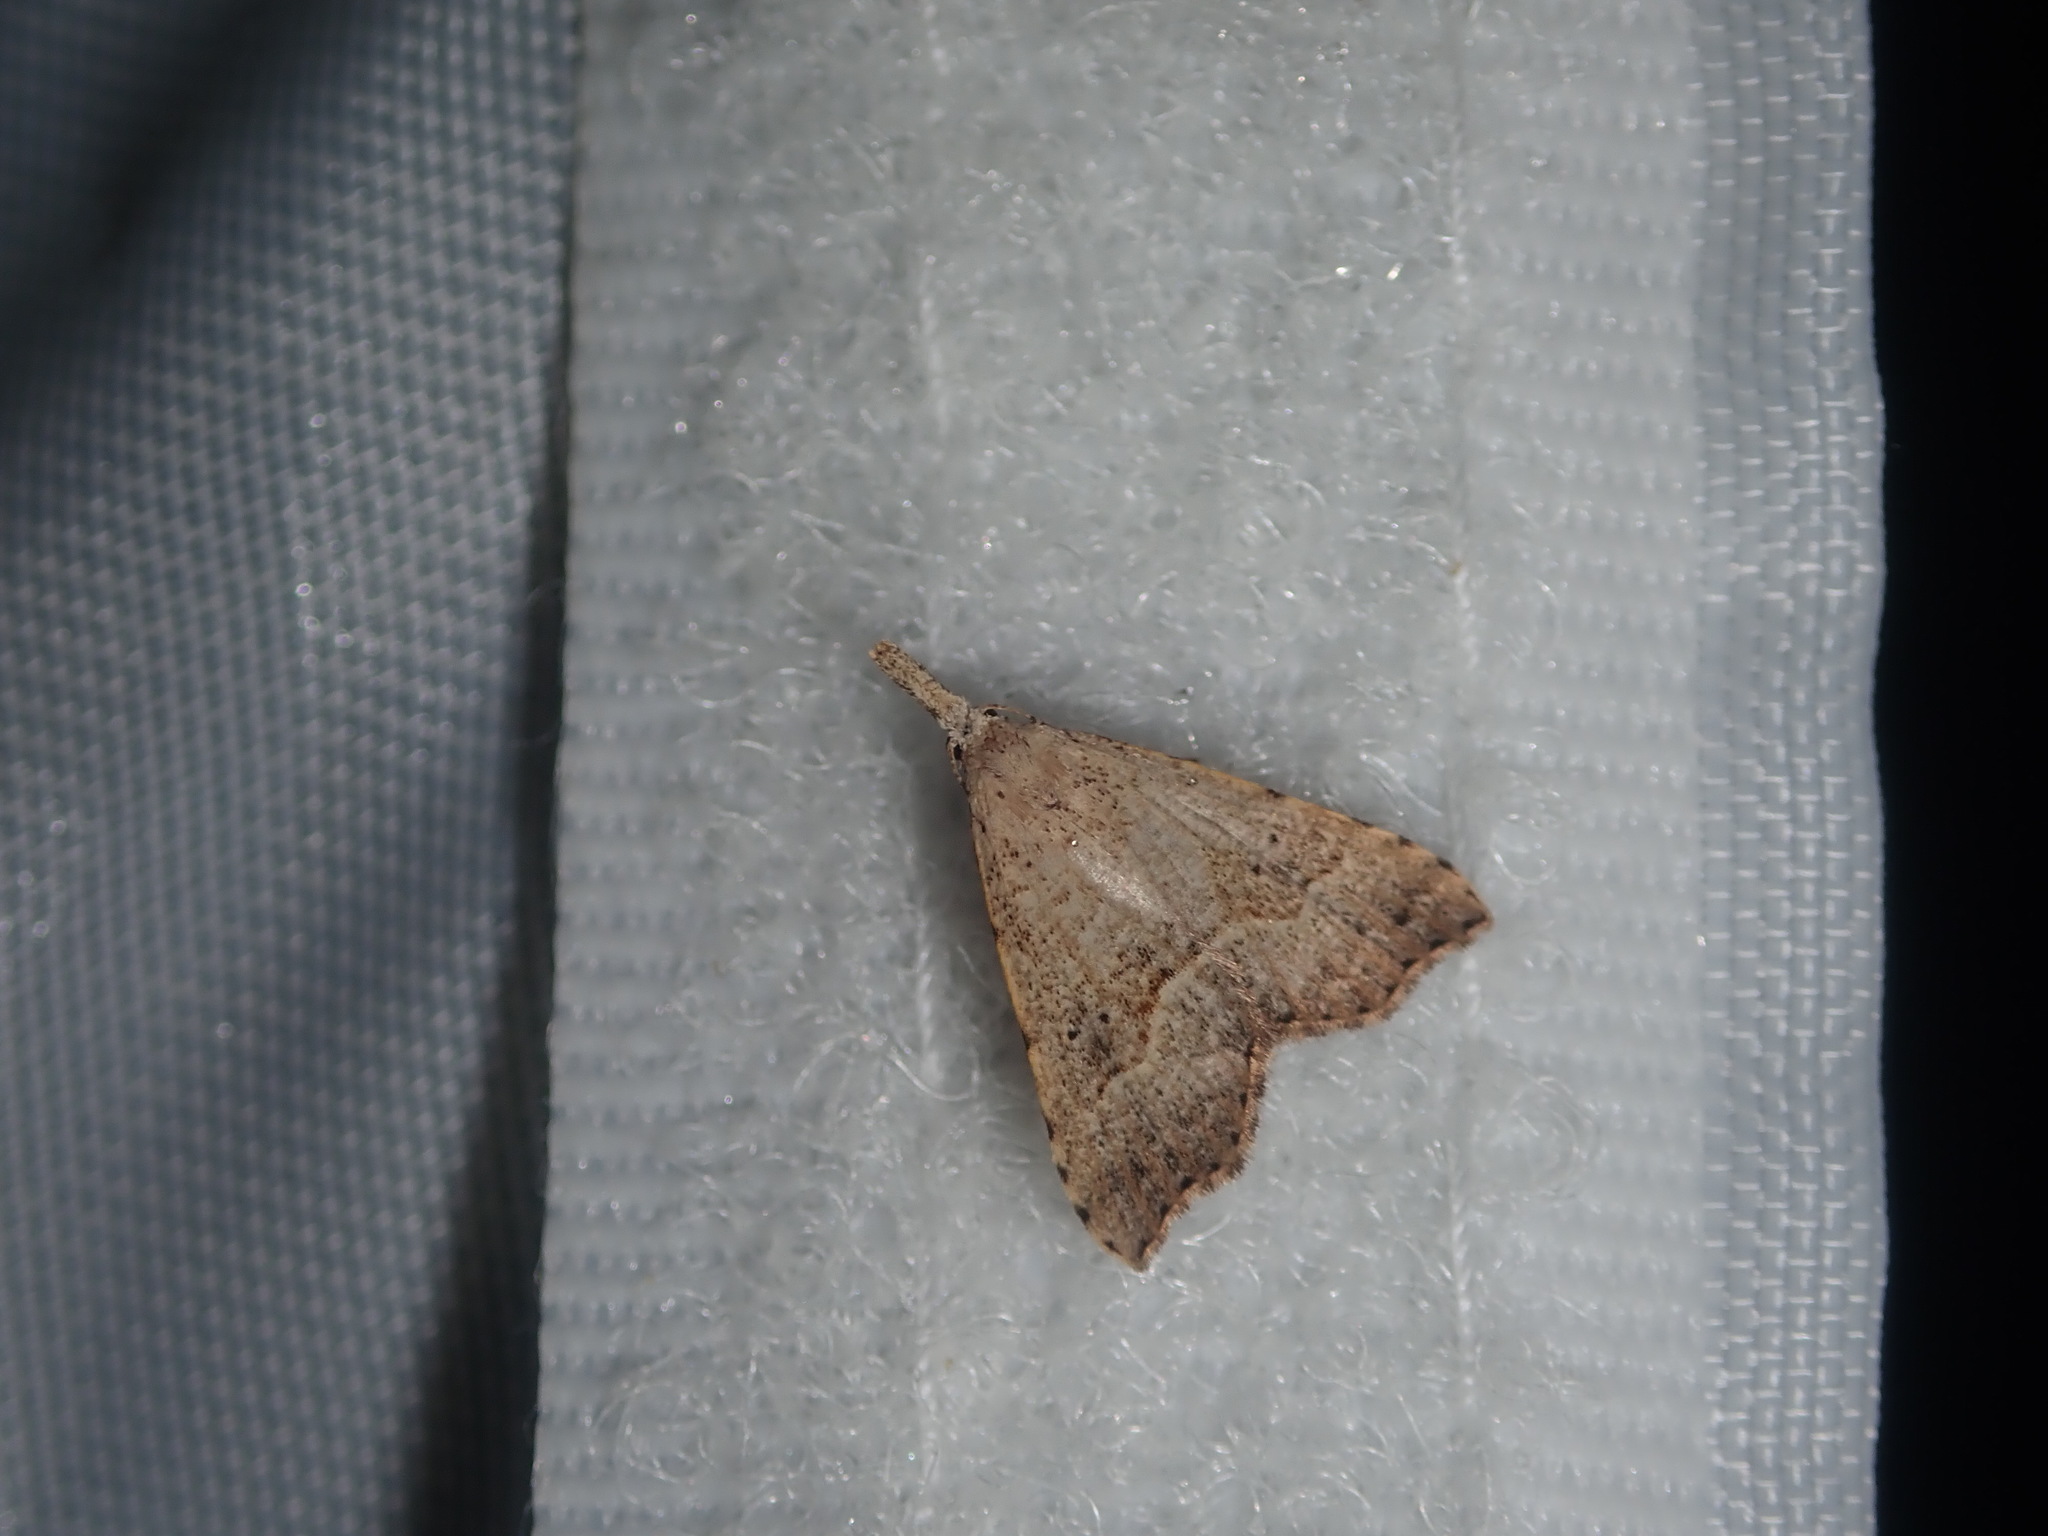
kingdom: Animalia
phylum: Arthropoda
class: Insecta
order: Lepidoptera
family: Erebidae
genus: Trigonistis
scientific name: Trigonistis asthenopa
